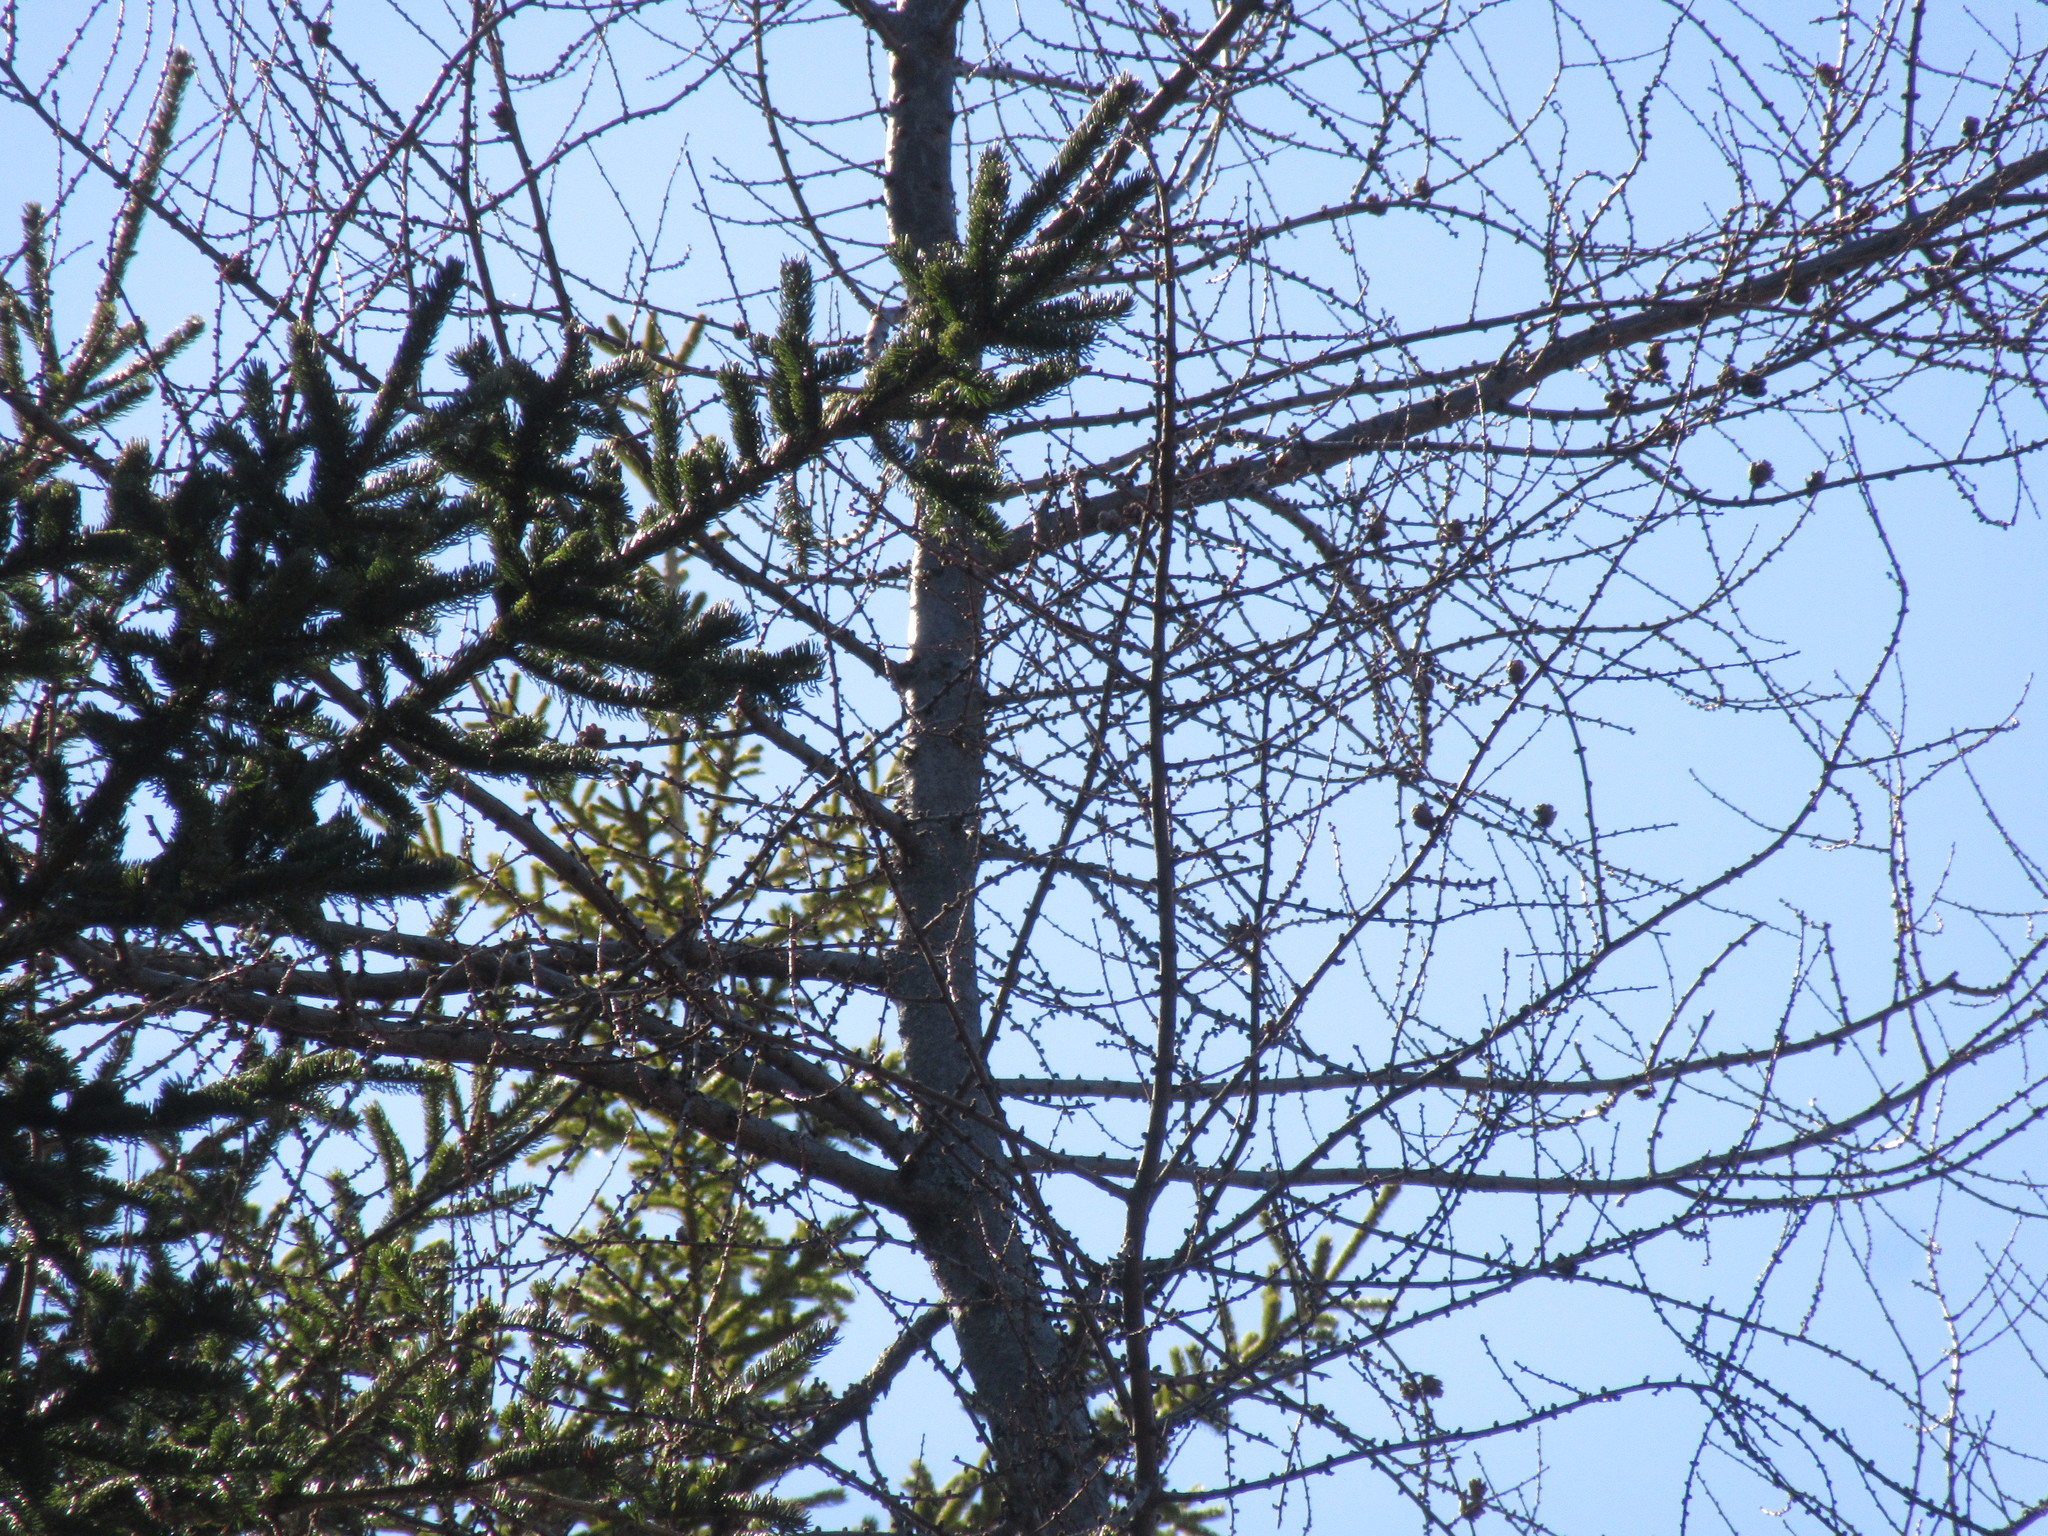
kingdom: Plantae
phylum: Tracheophyta
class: Pinopsida
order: Pinales
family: Pinaceae
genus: Larix
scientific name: Larix laricina
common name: American larch
